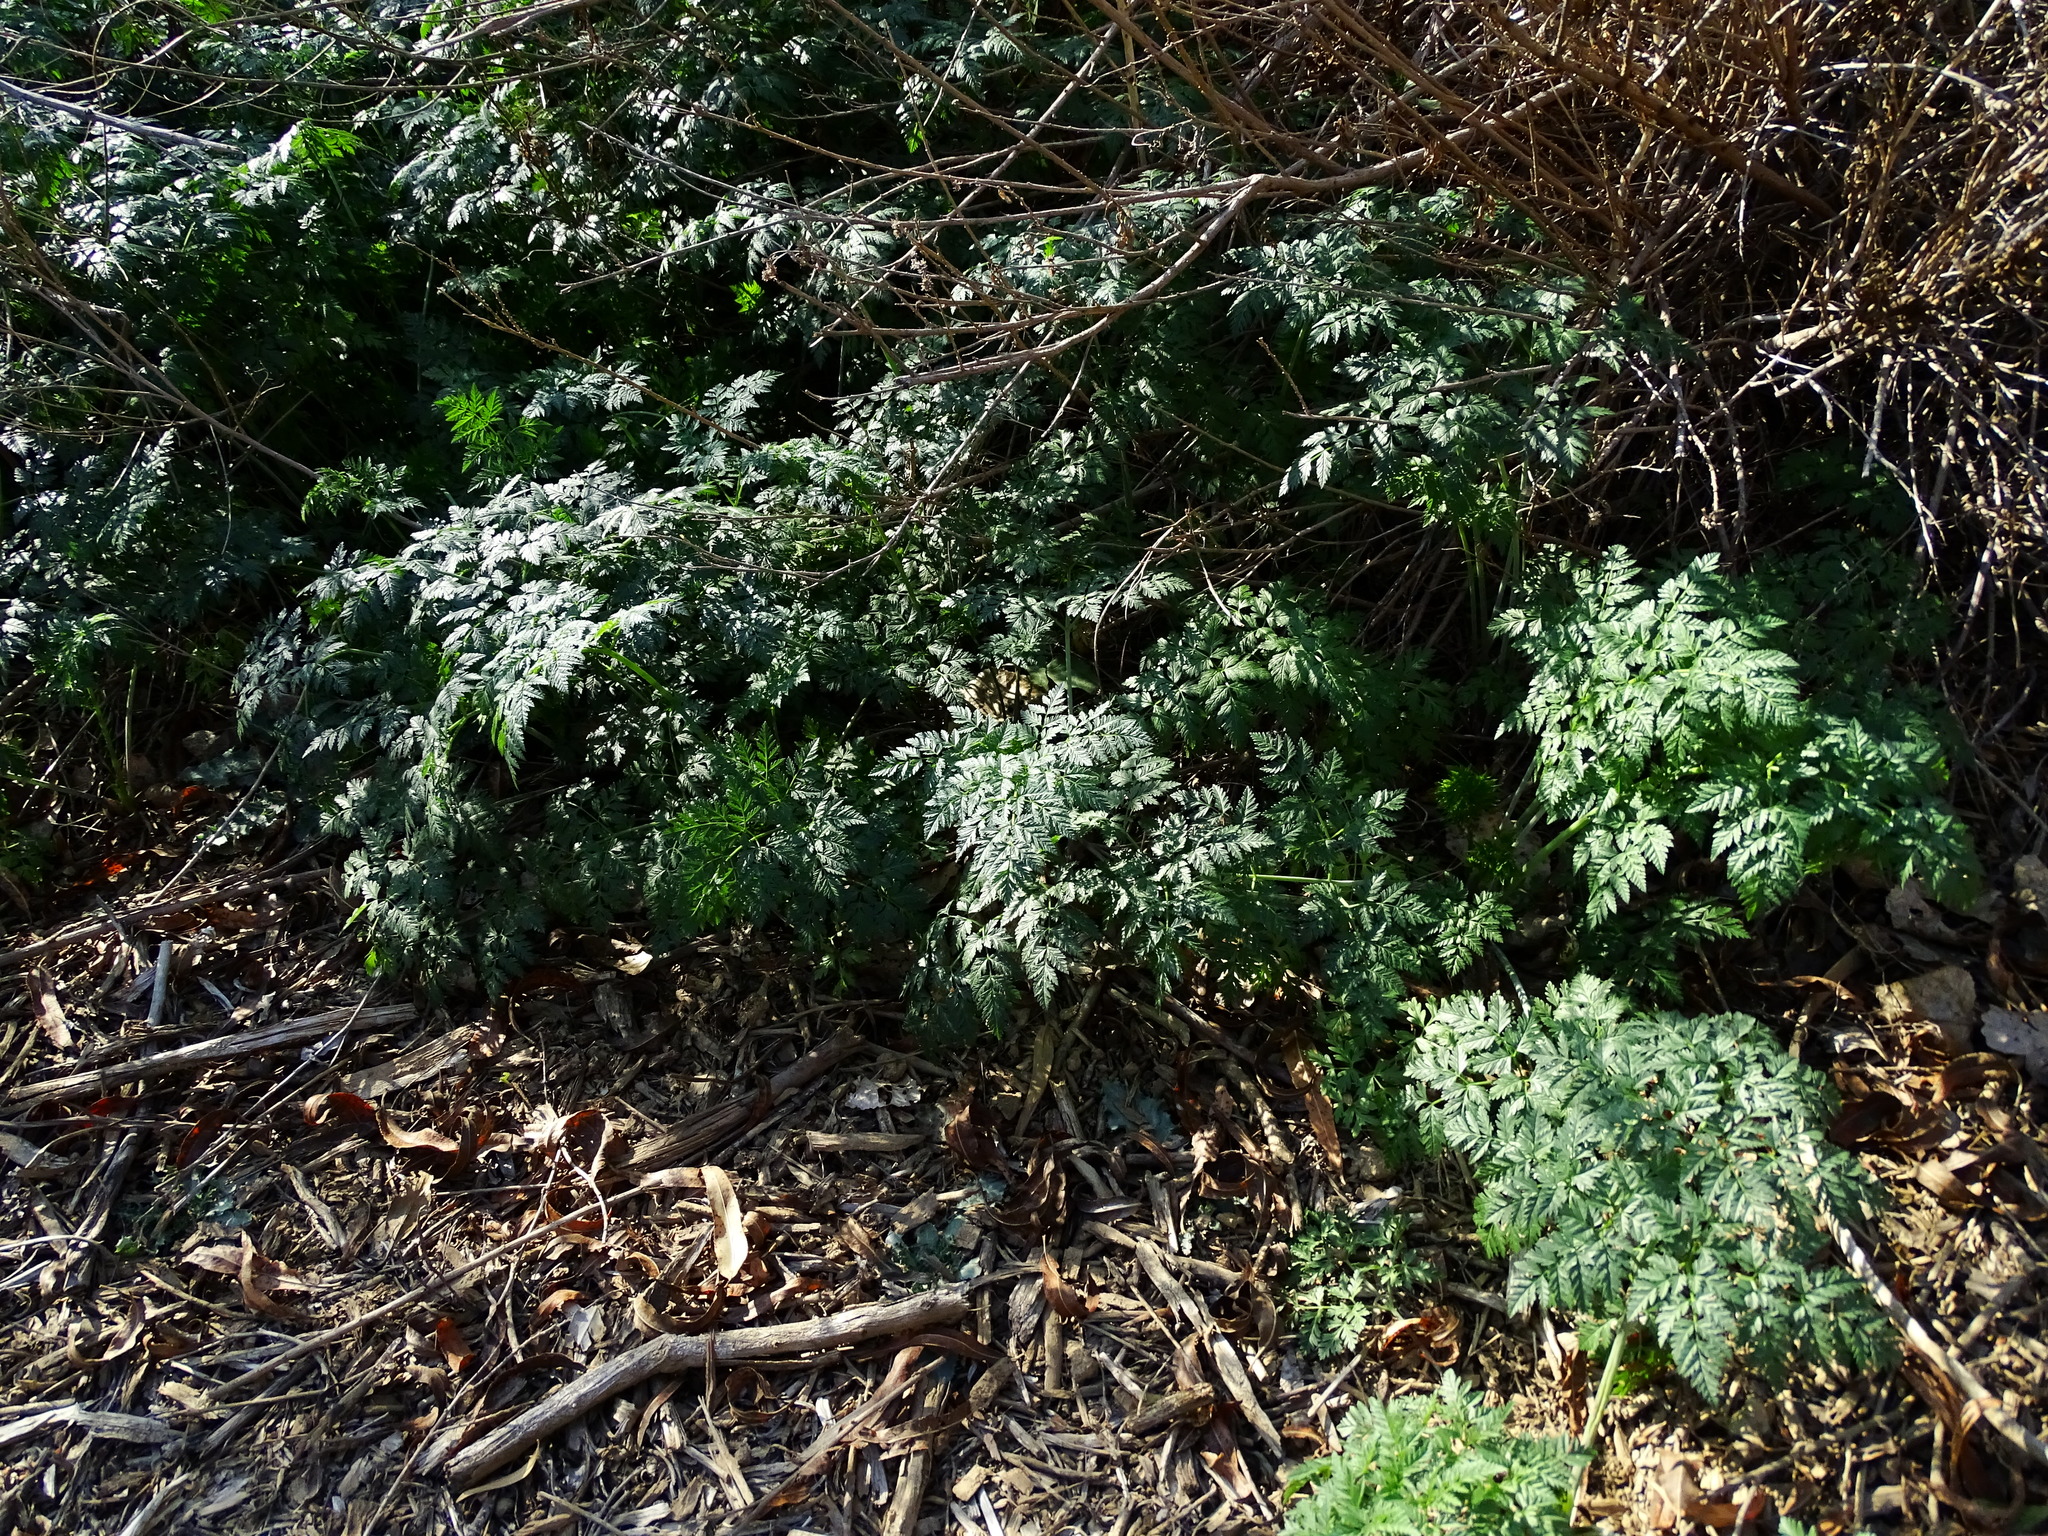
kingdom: Plantae
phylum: Tracheophyta
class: Magnoliopsida
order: Apiales
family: Apiaceae
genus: Conium
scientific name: Conium maculatum
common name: Hemlock
